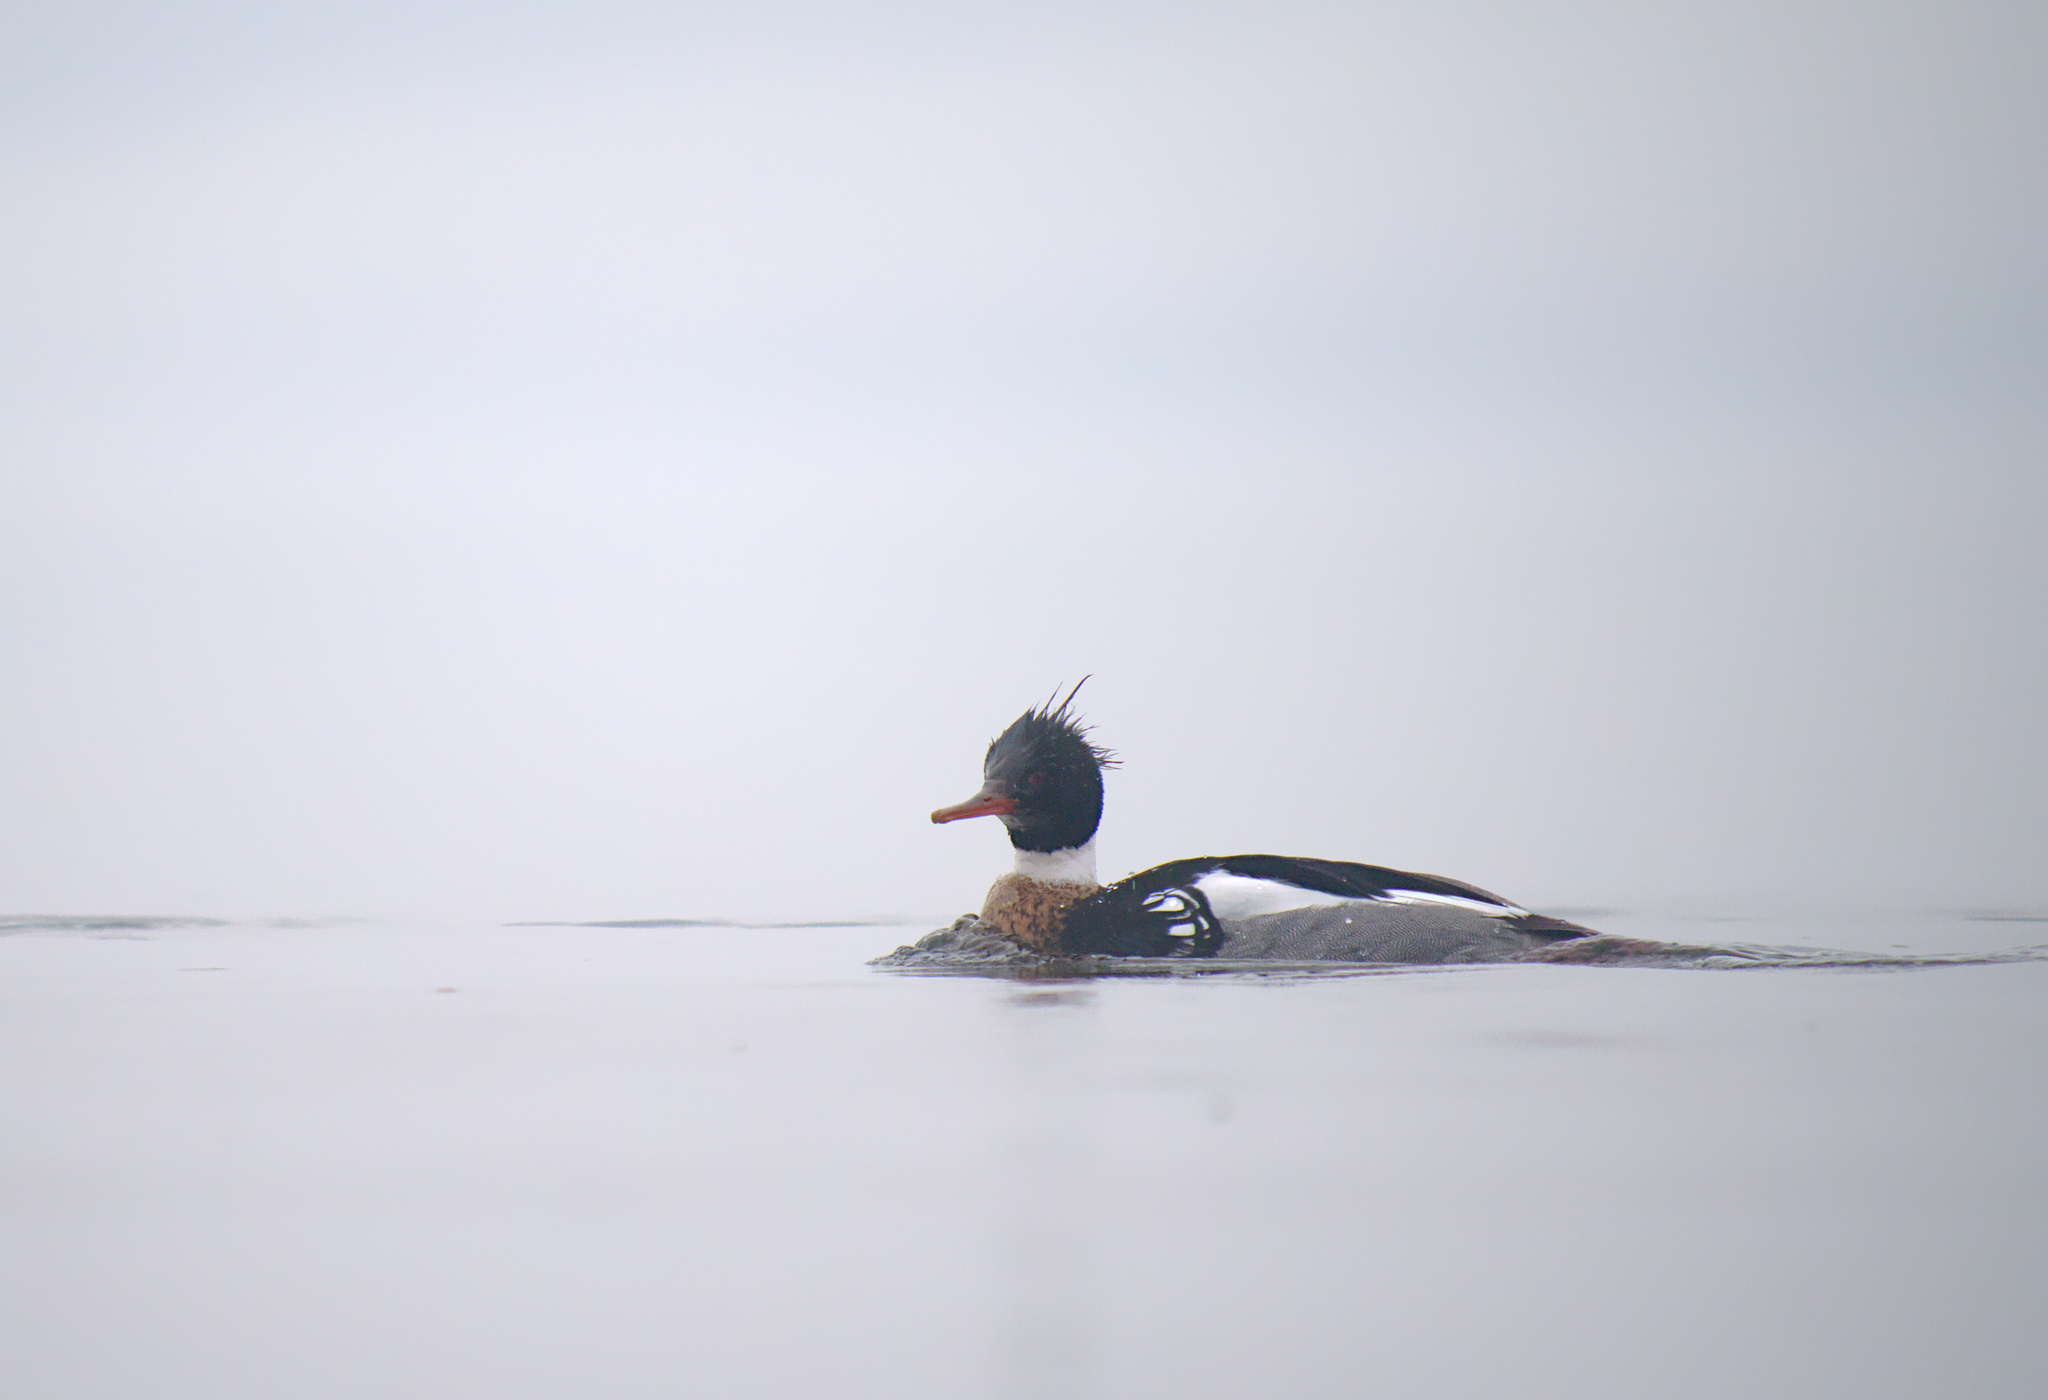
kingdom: Animalia
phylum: Chordata
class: Aves
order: Anseriformes
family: Anatidae
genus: Mergus
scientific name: Mergus serrator
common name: Red-breasted merganser
